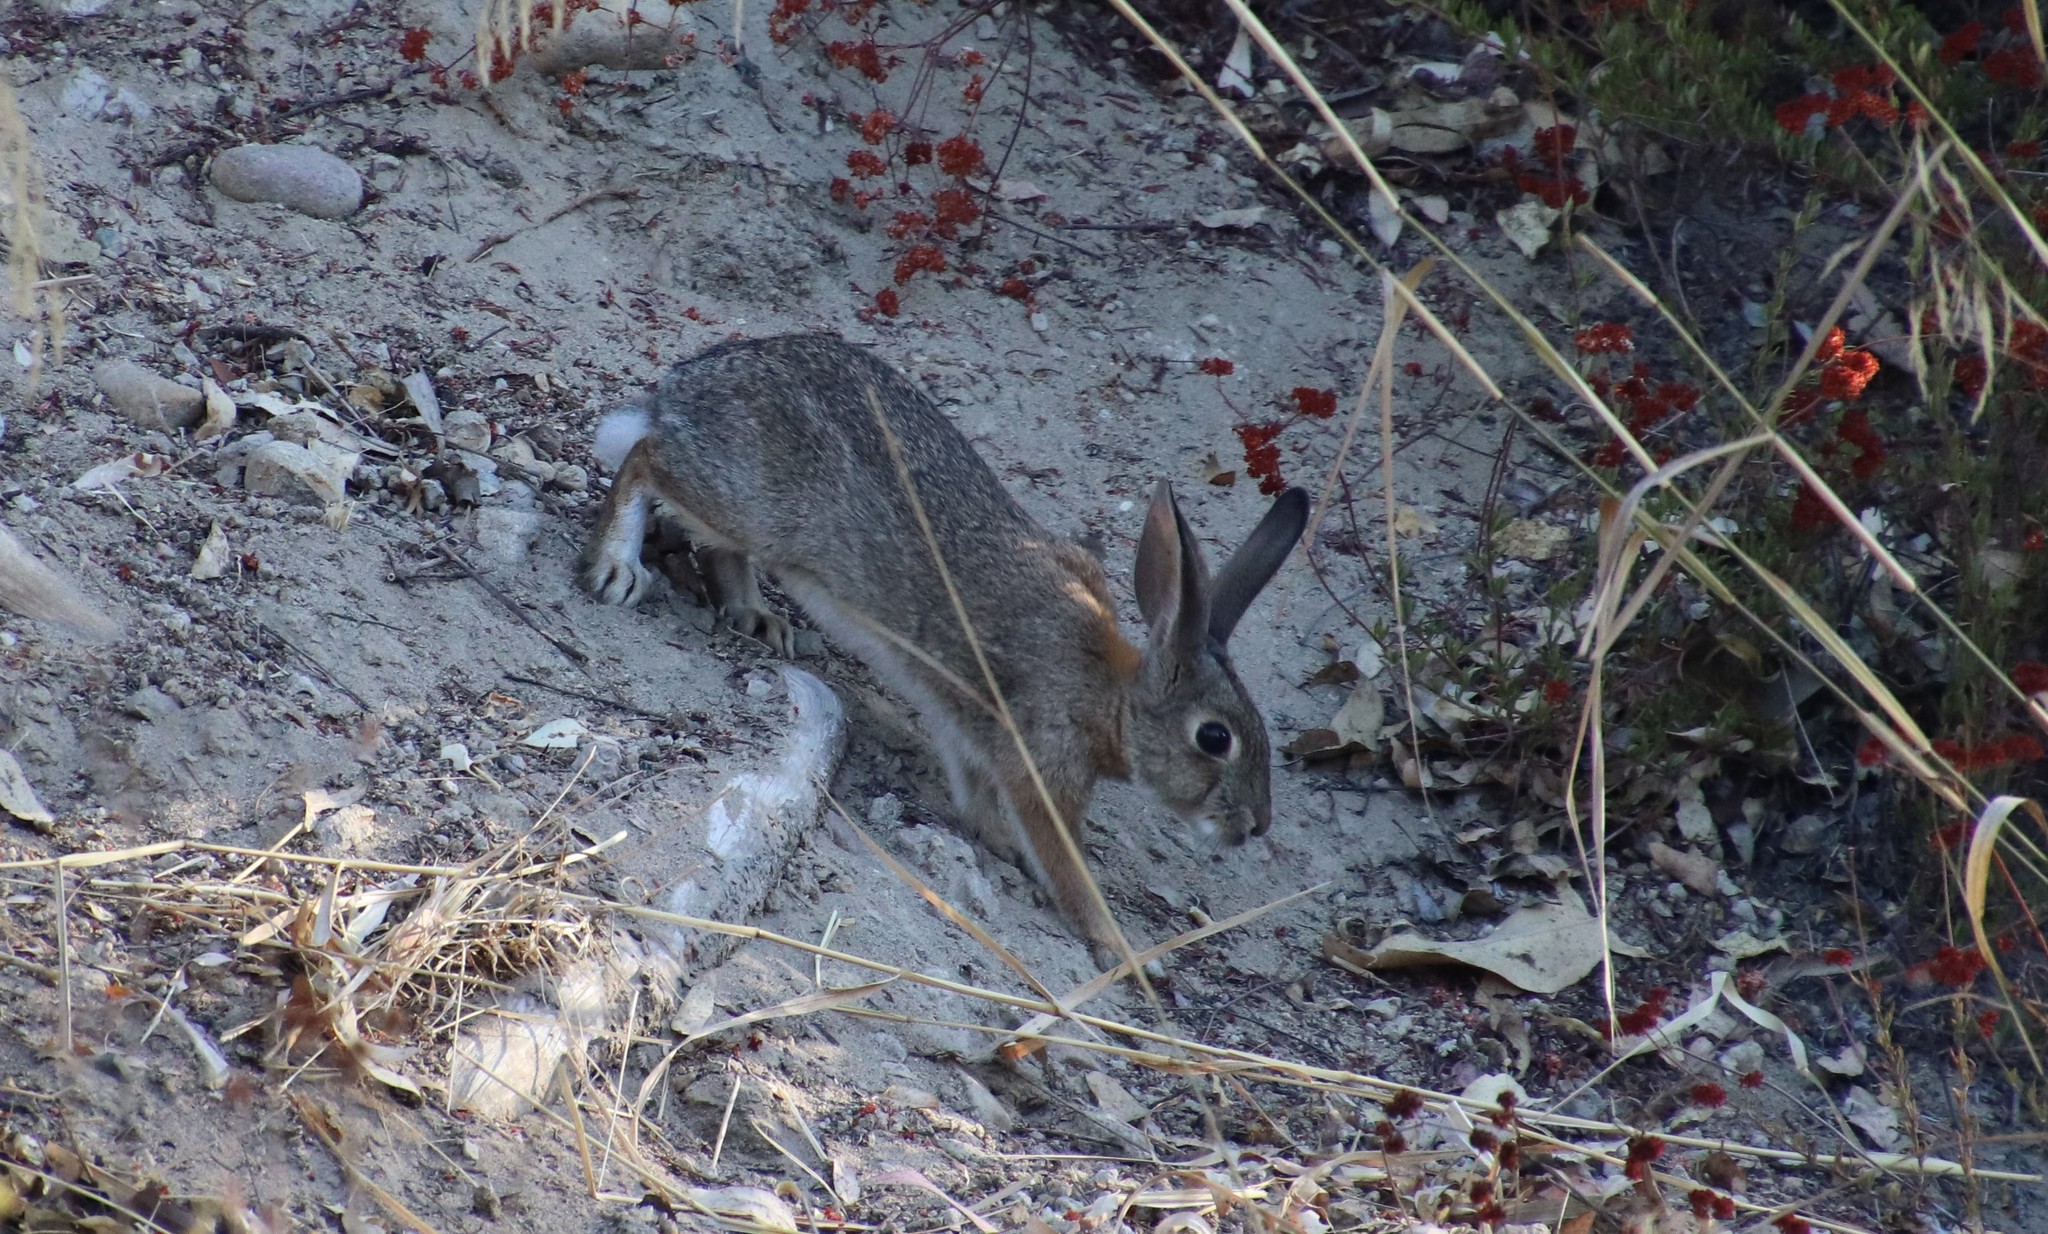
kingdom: Animalia
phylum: Chordata
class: Mammalia
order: Lagomorpha
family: Leporidae
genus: Sylvilagus
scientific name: Sylvilagus audubonii
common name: Desert cottontail
